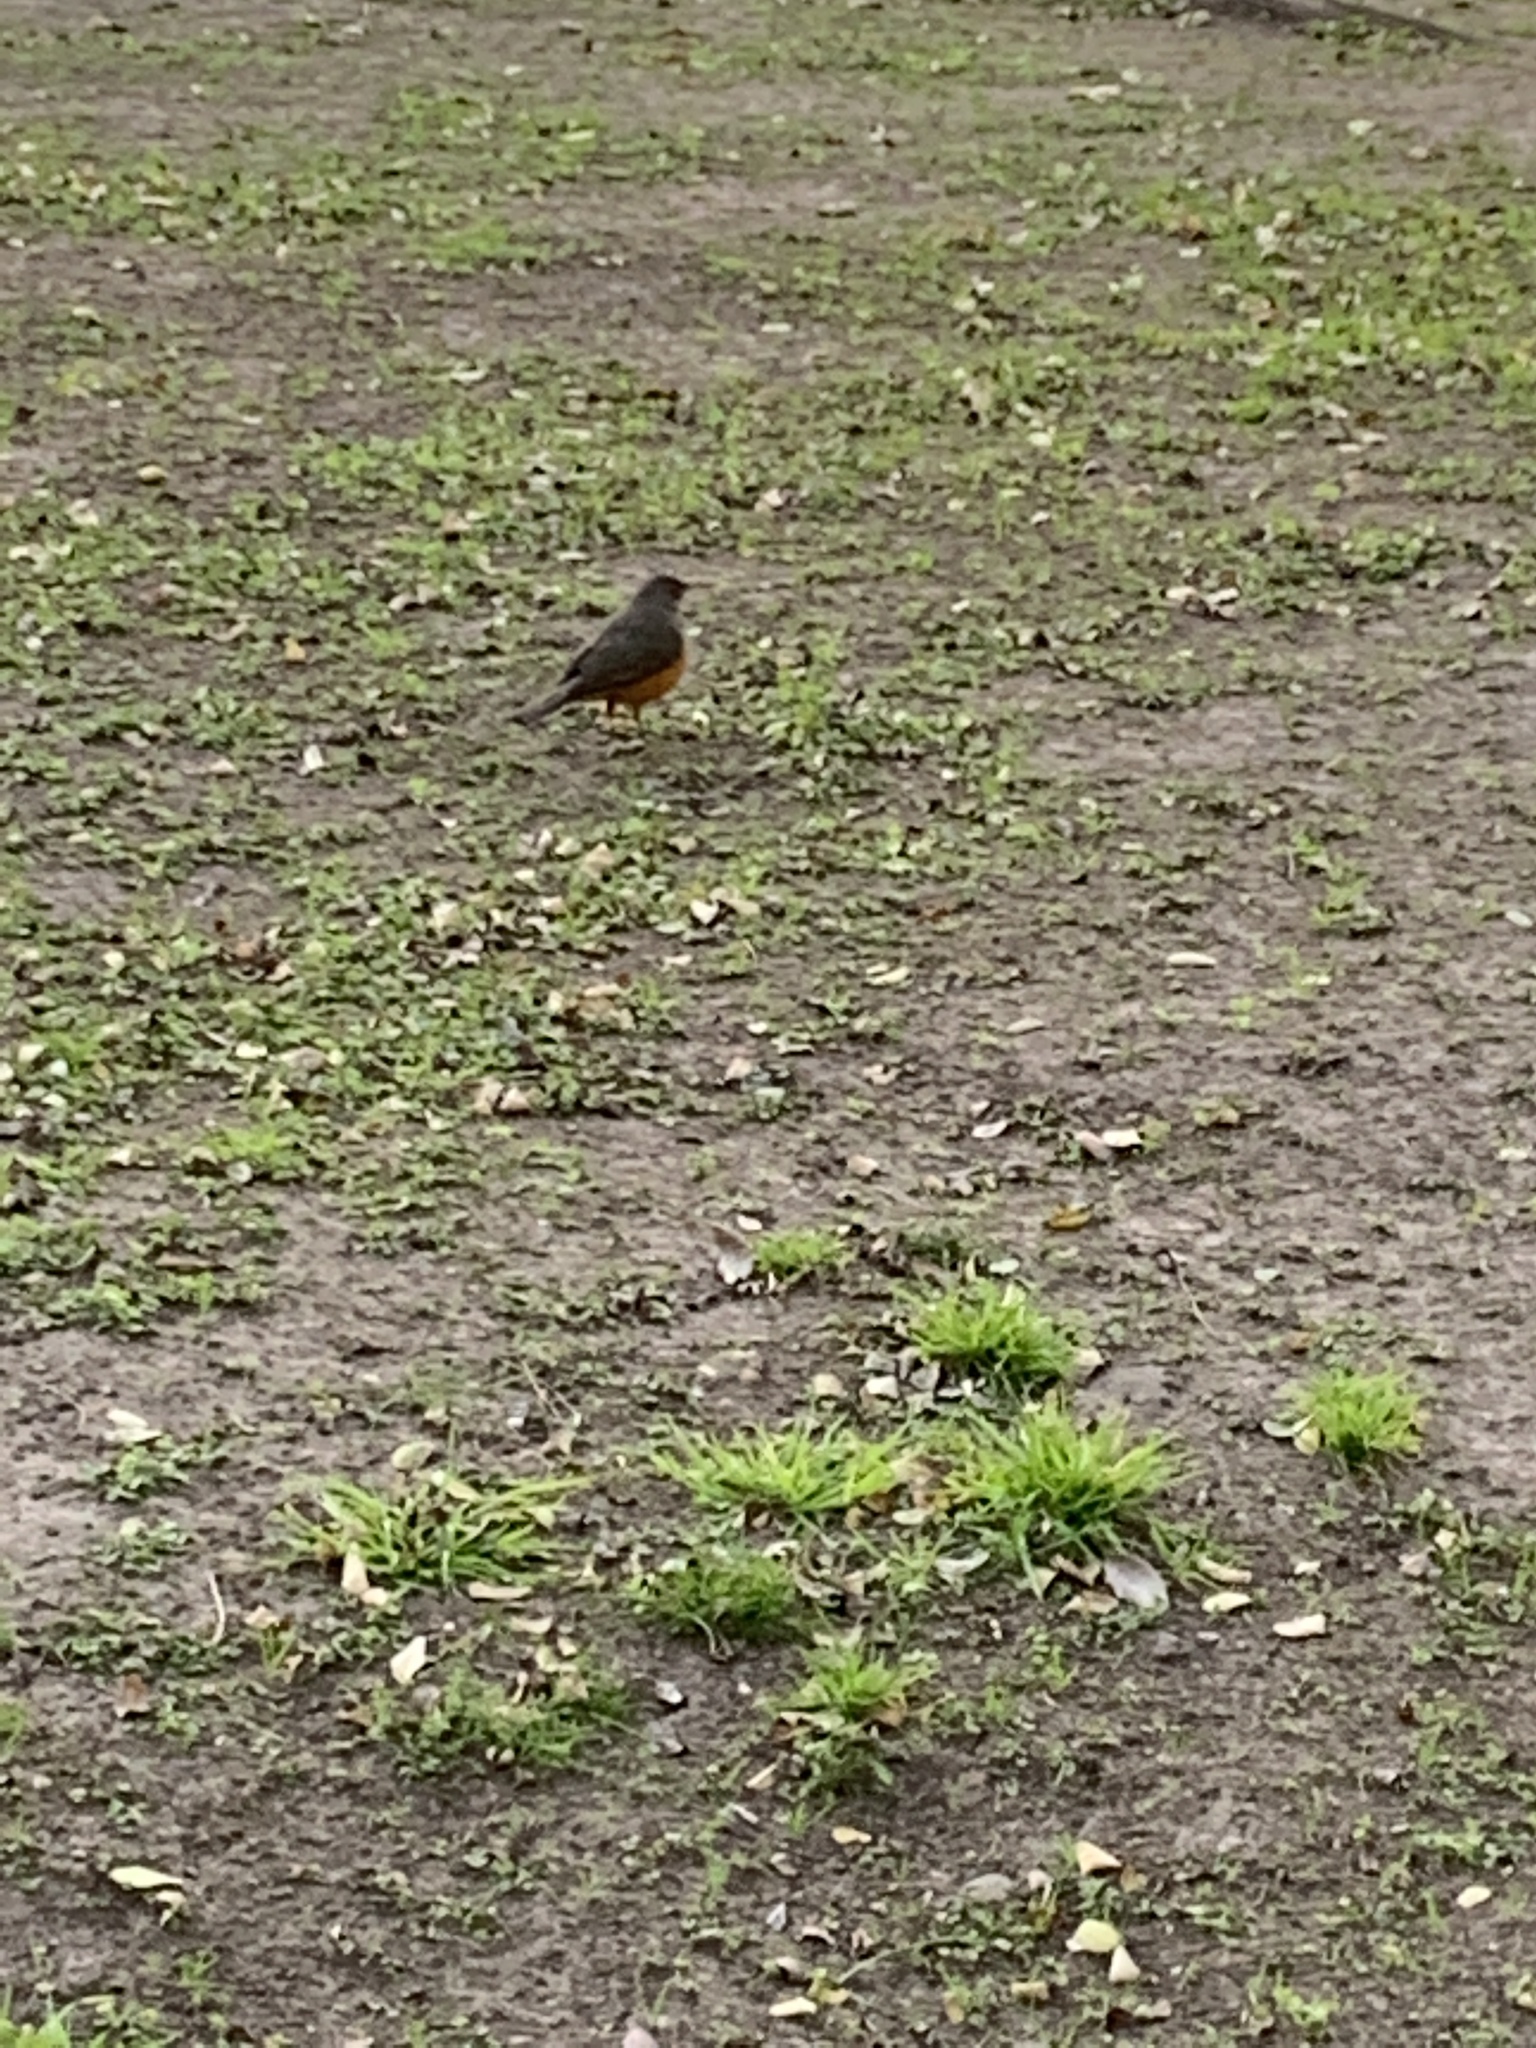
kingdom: Animalia
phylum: Chordata
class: Aves
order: Passeriformes
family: Turdidae
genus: Turdus
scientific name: Turdus rufiventris
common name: Rufous-bellied thrush
